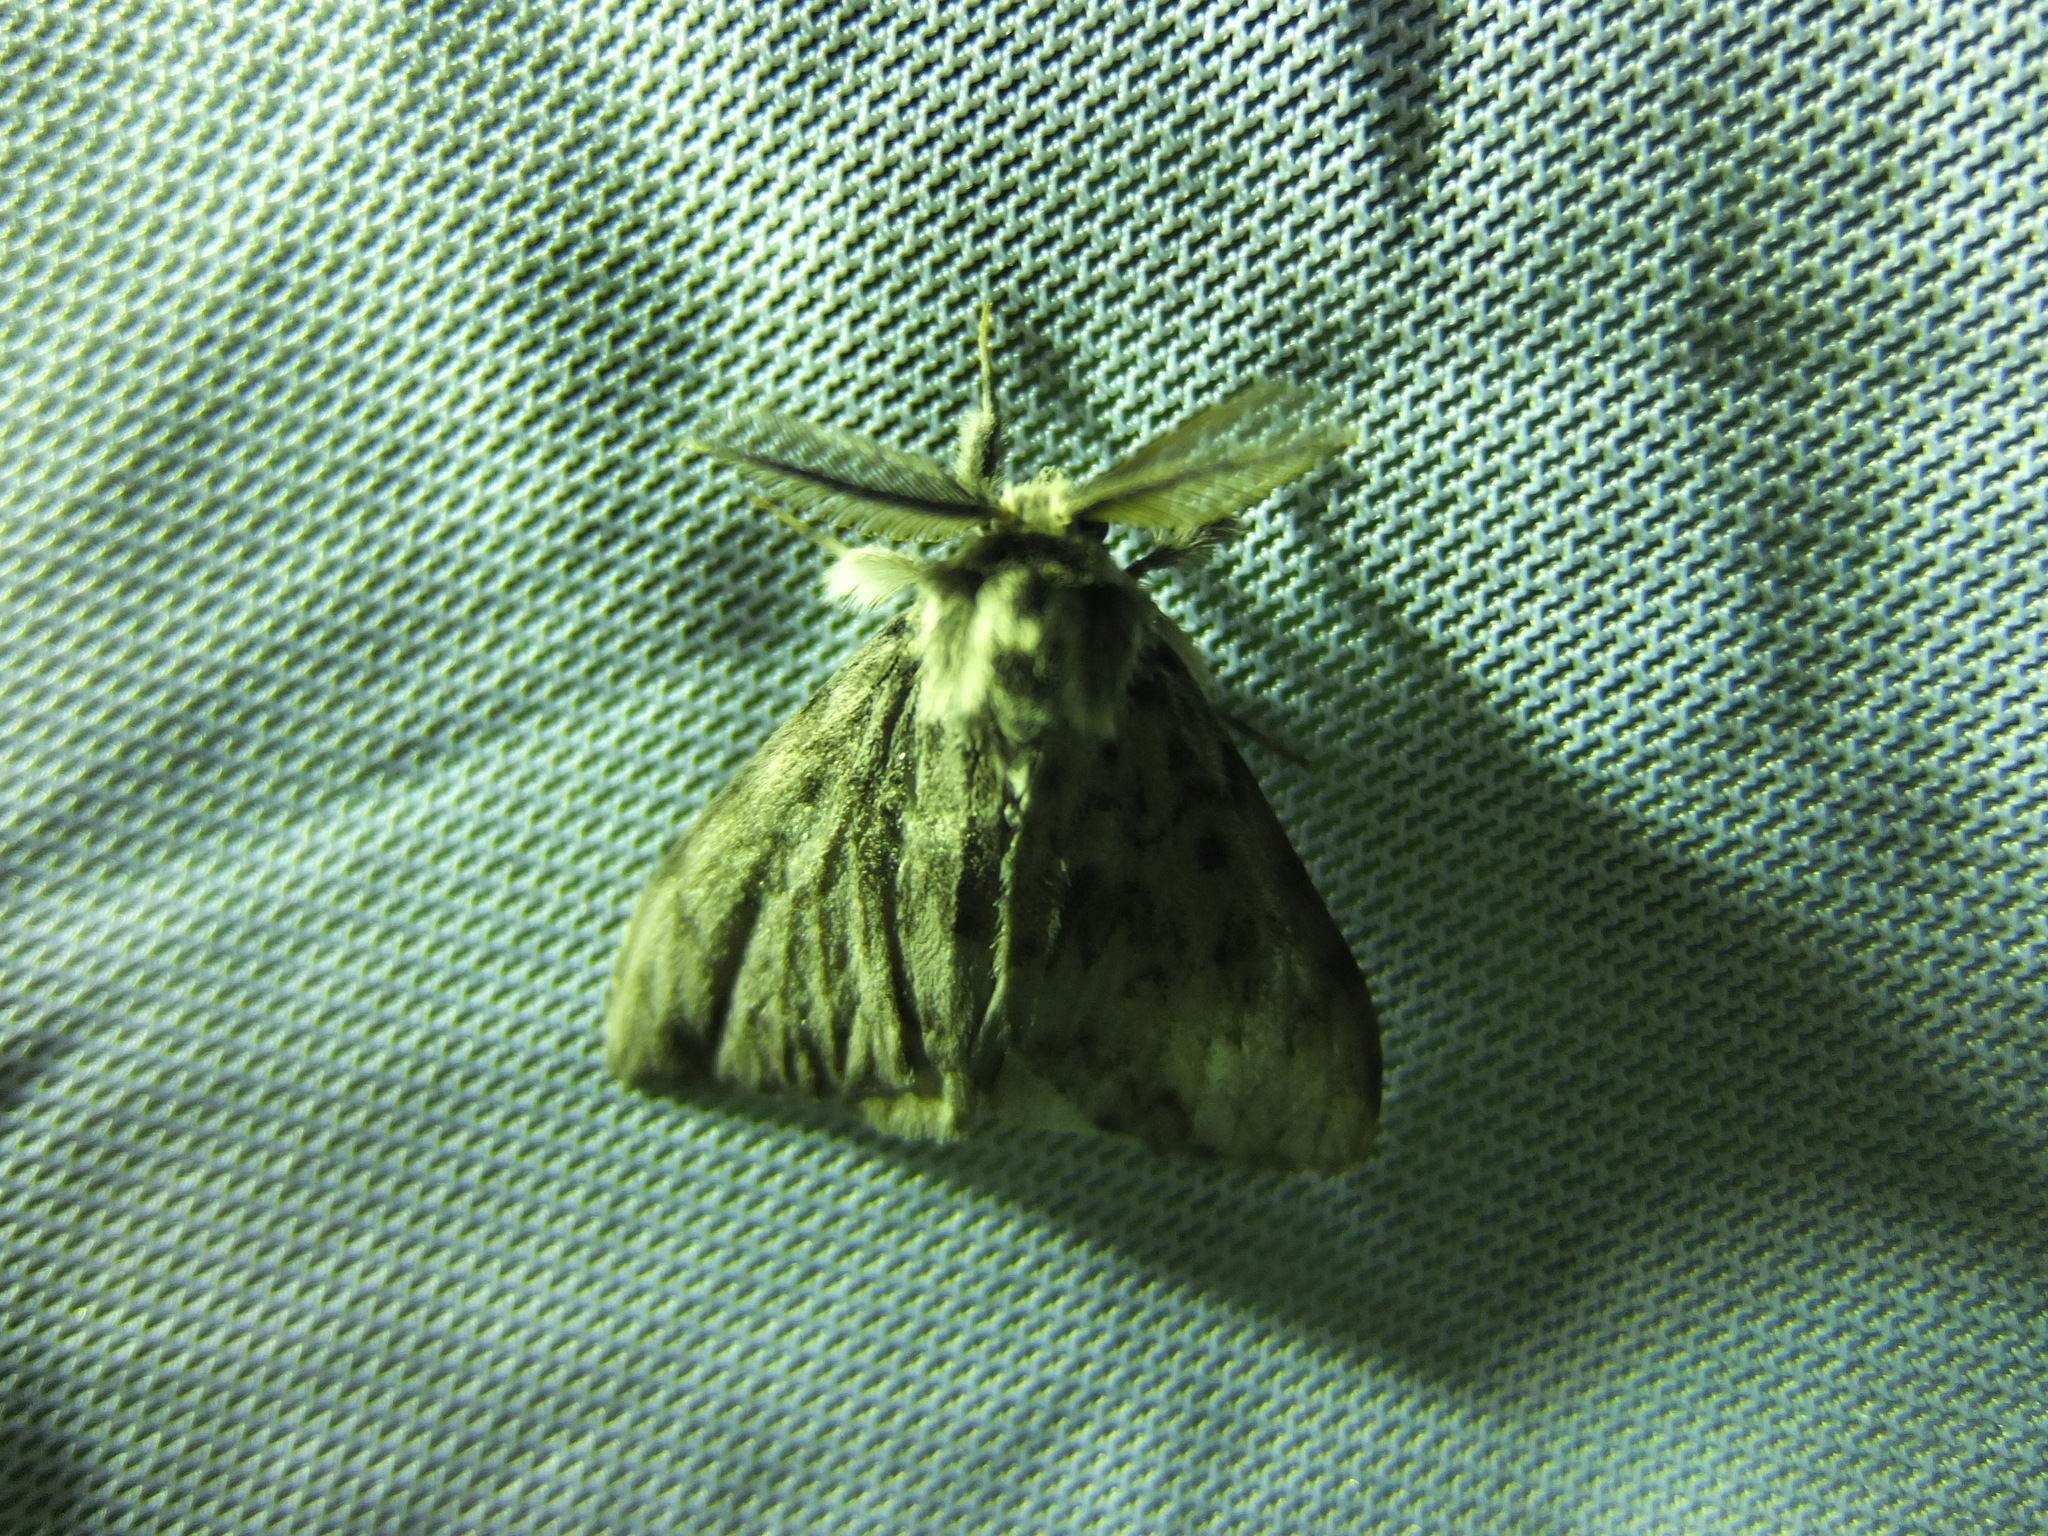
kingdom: Animalia
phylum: Arthropoda
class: Insecta
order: Lepidoptera
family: Erebidae
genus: Lymantria
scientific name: Lymantria monacha
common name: Black arches
